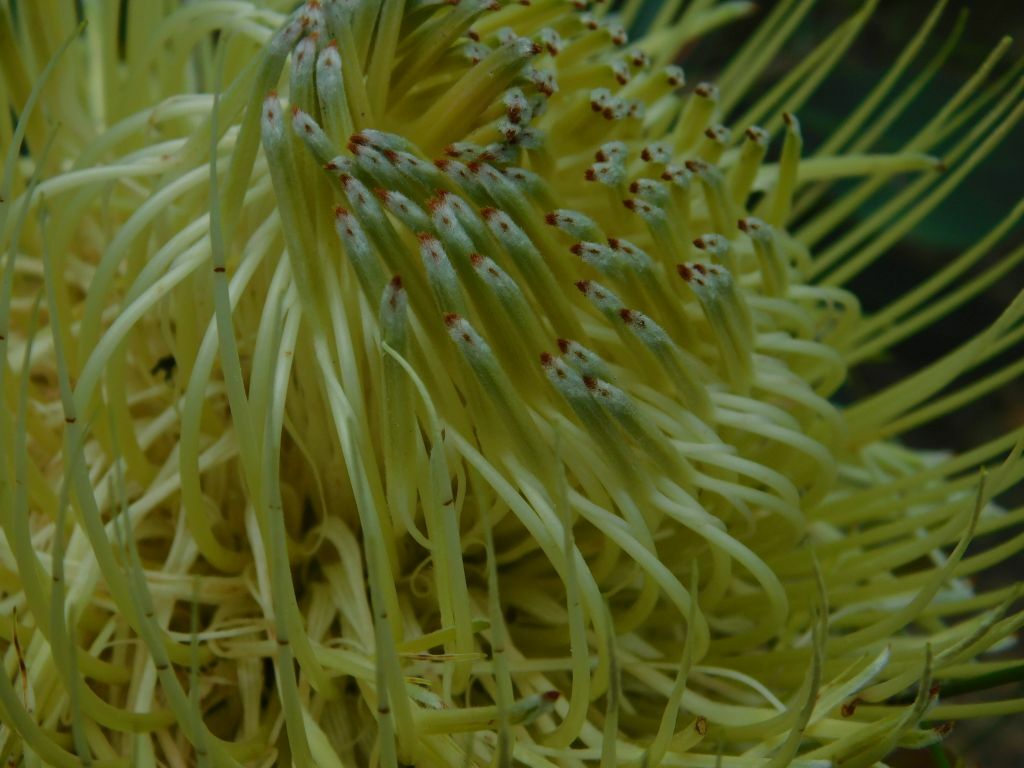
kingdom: Plantae
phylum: Tracheophyta
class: Magnoliopsida
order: Proteales
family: Proteaceae
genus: Protea
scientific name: Protea nitida
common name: Tree protea
